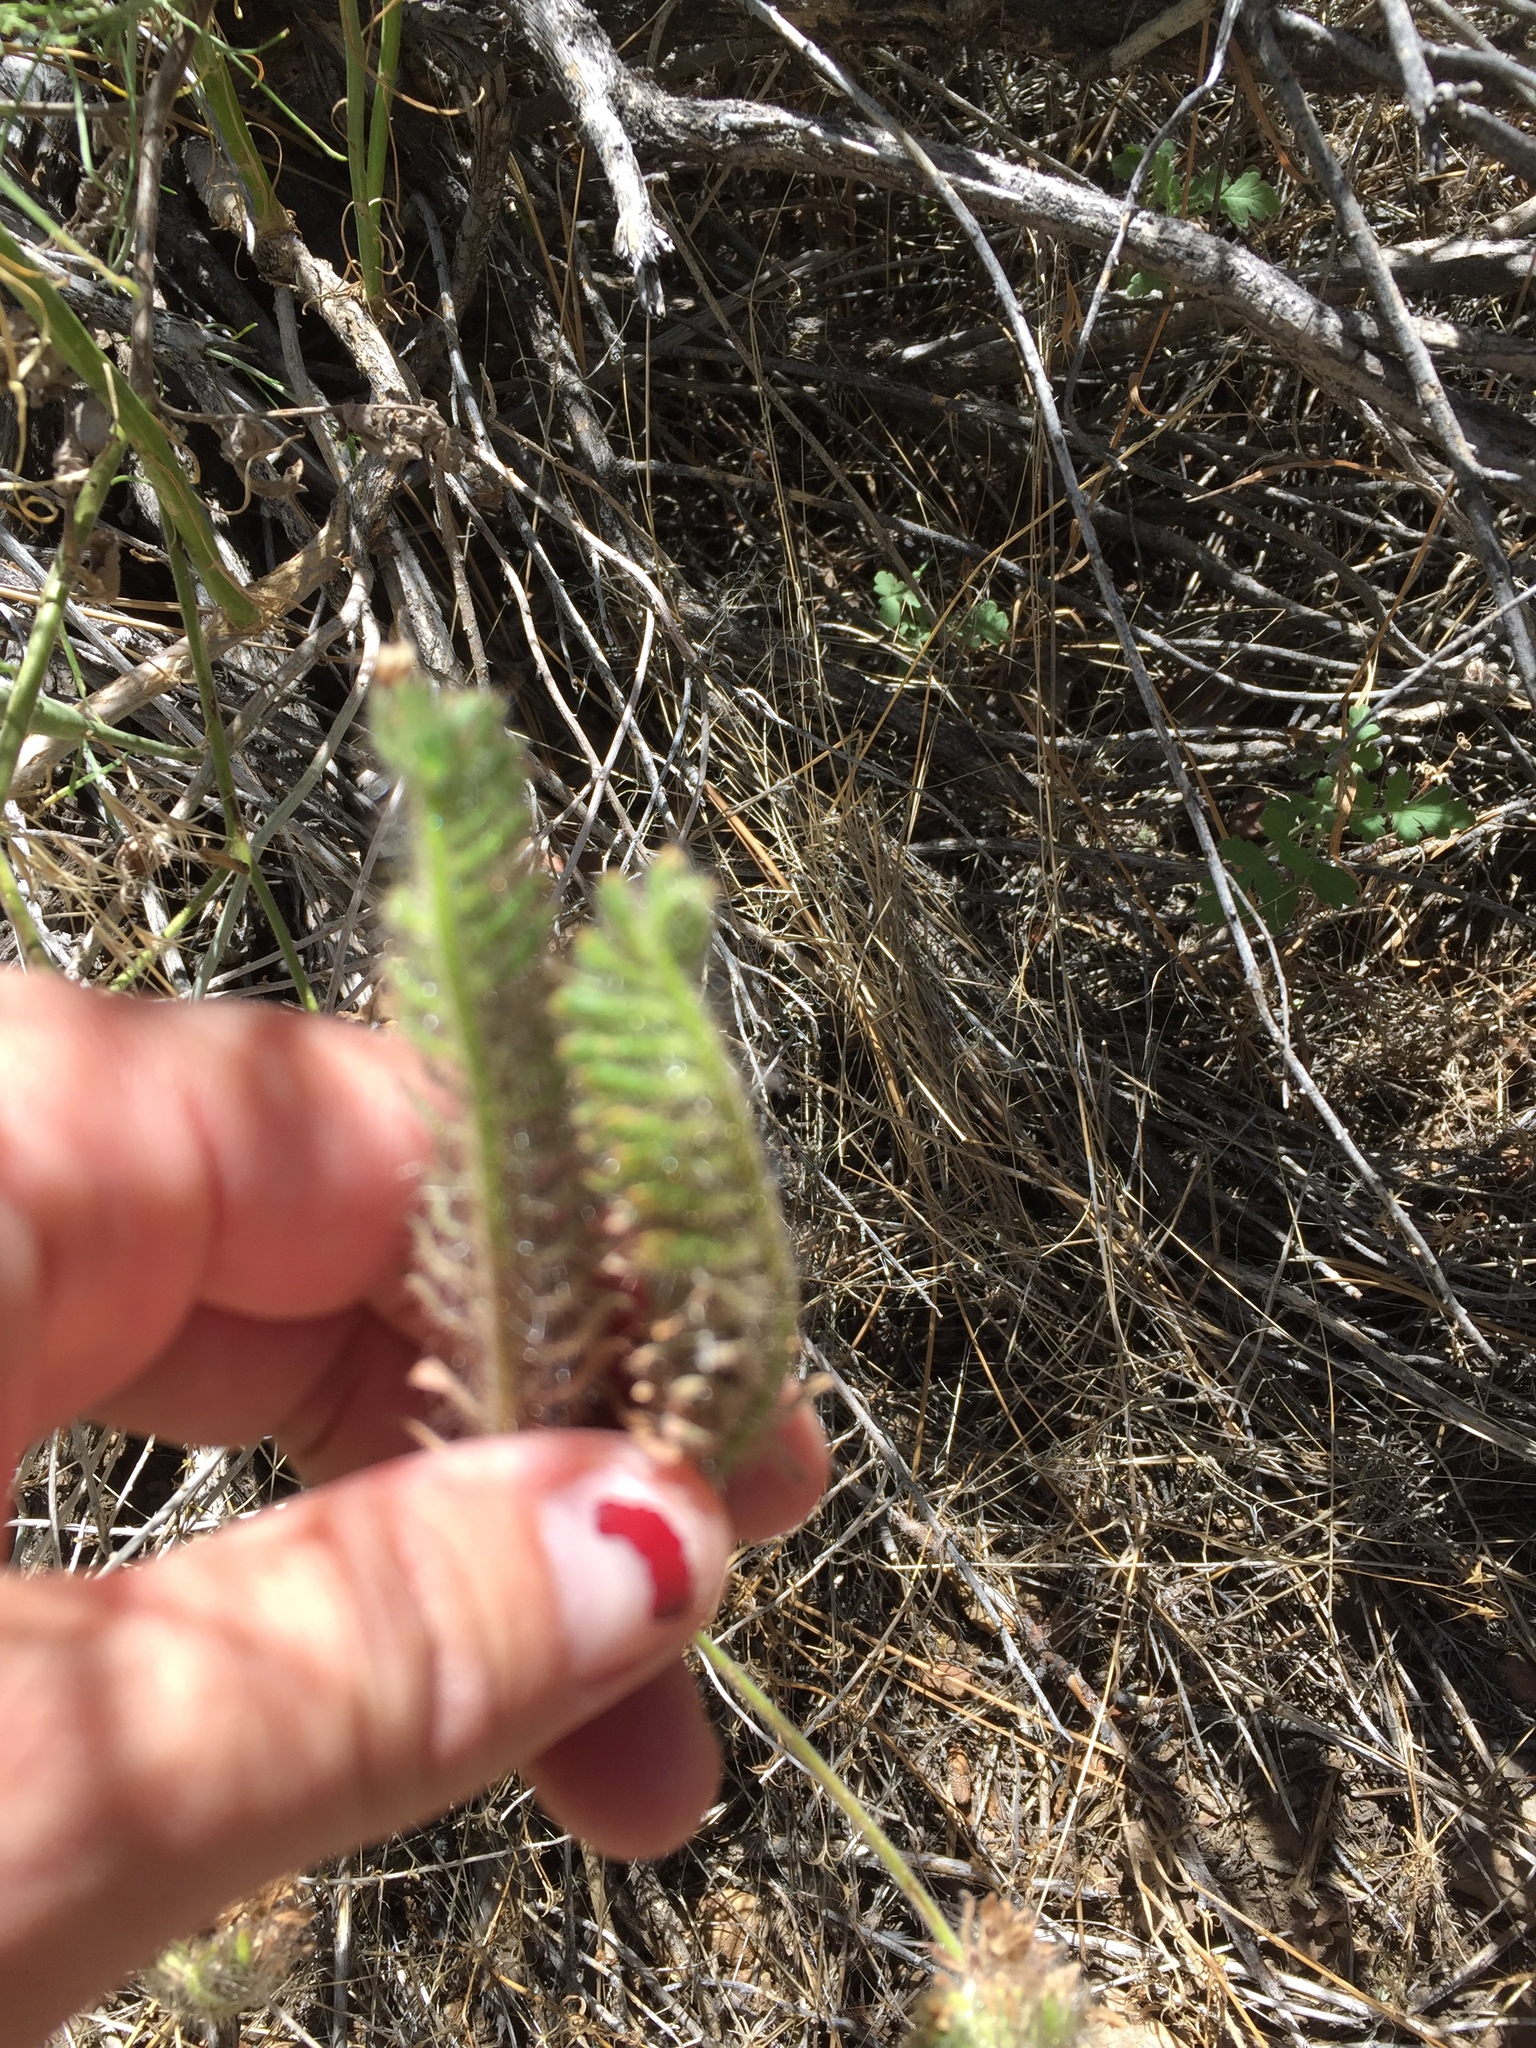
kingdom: Plantae
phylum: Tracheophyta
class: Magnoliopsida
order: Boraginales
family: Hydrophyllaceae
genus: Phacelia
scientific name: Phacelia ramosissima
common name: Branching phacelia
